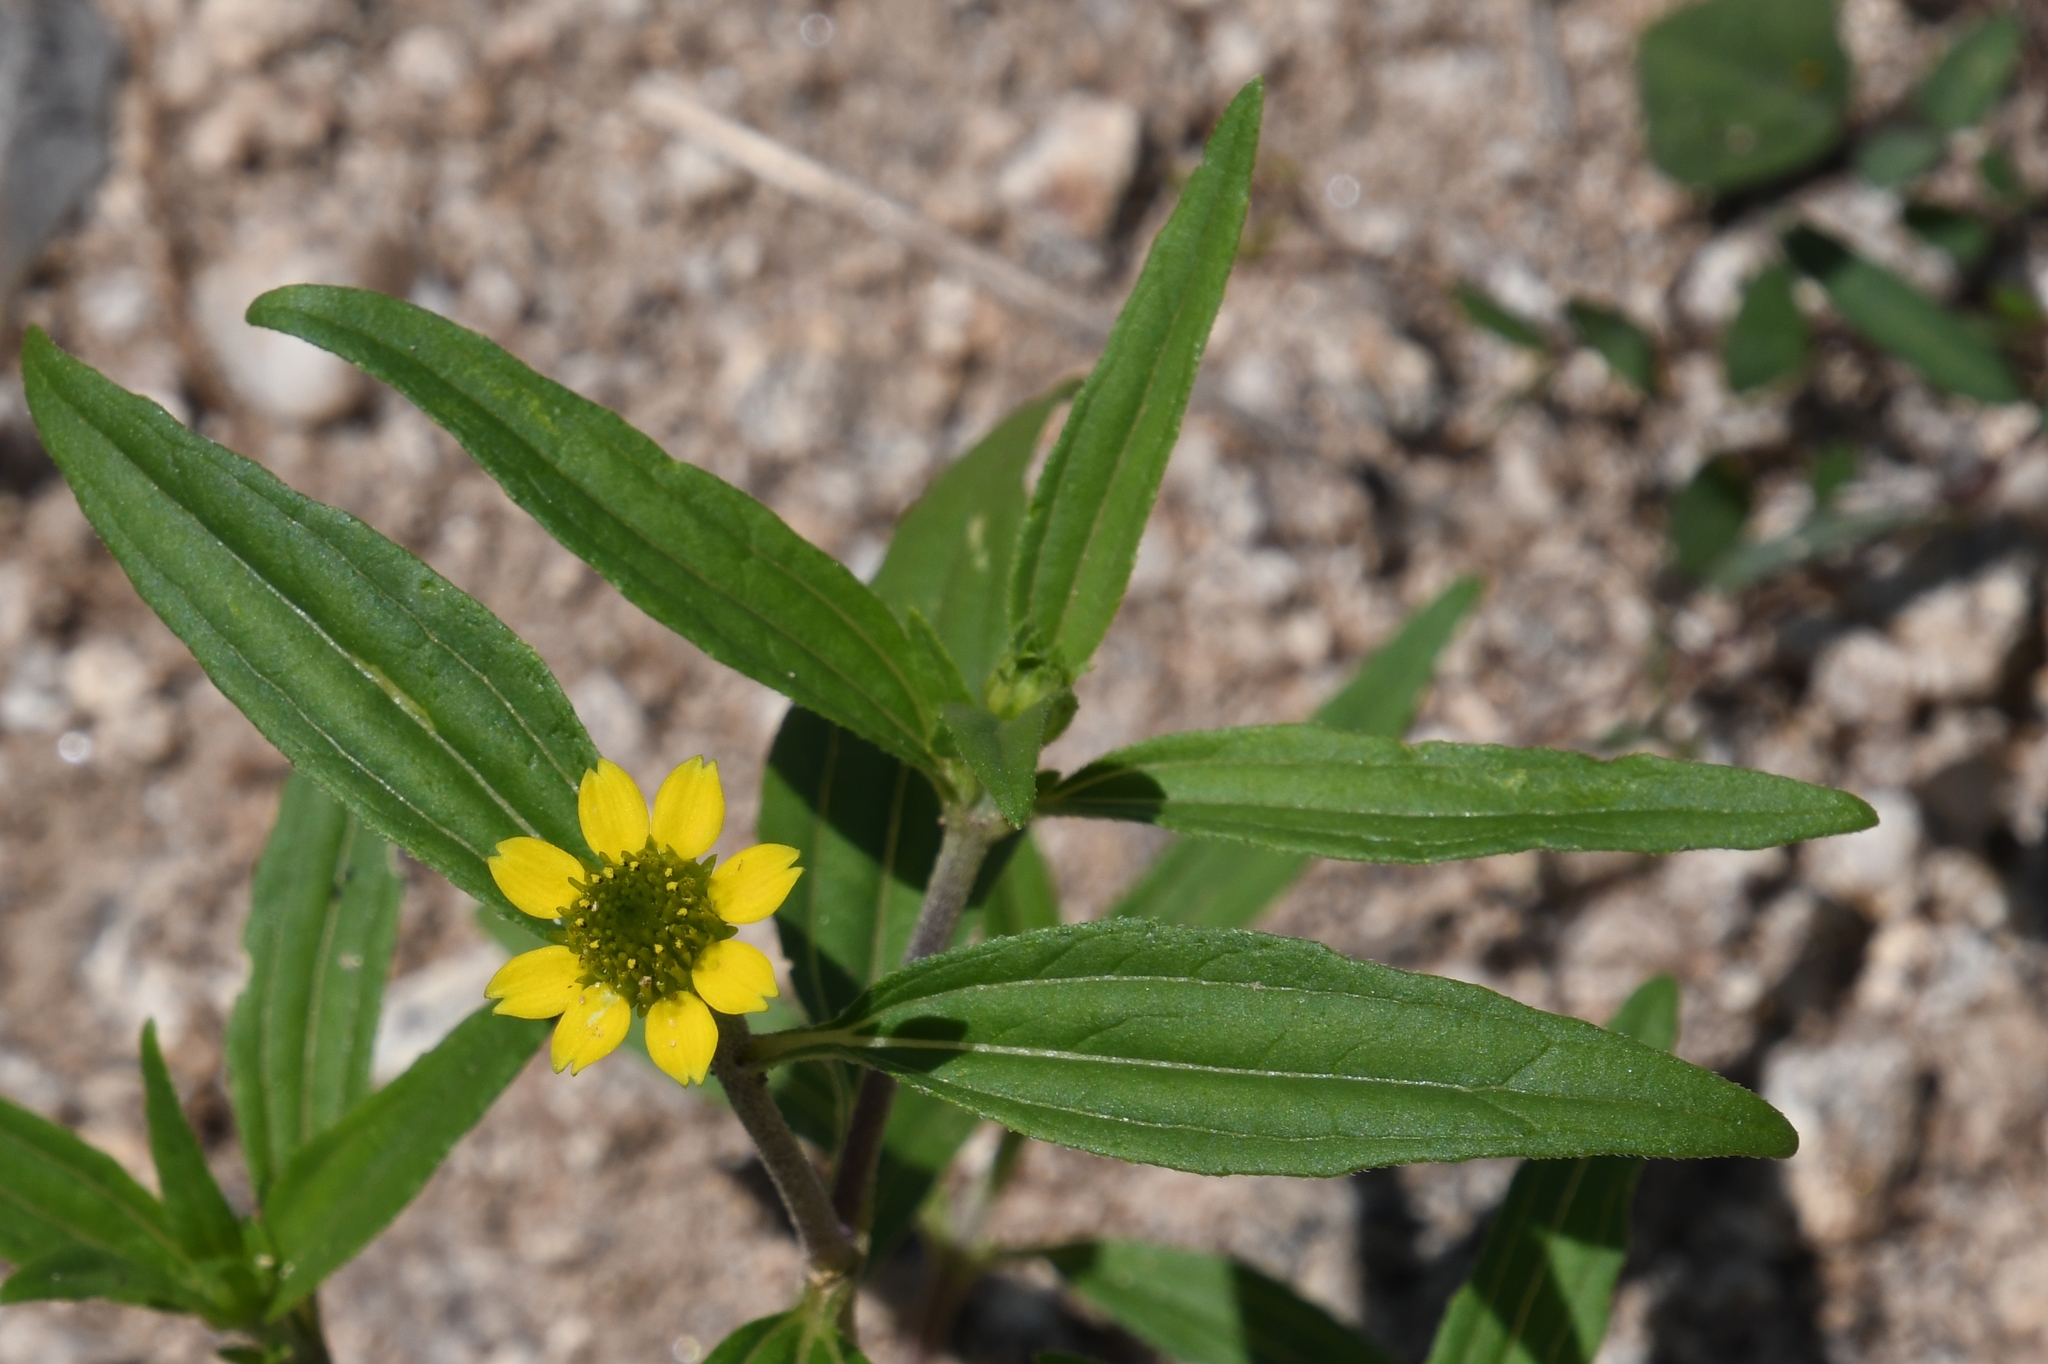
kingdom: Plantae
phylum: Tracheophyta
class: Magnoliopsida
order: Asterales
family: Asteraceae
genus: Sanvitalia
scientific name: Sanvitalia abertii
